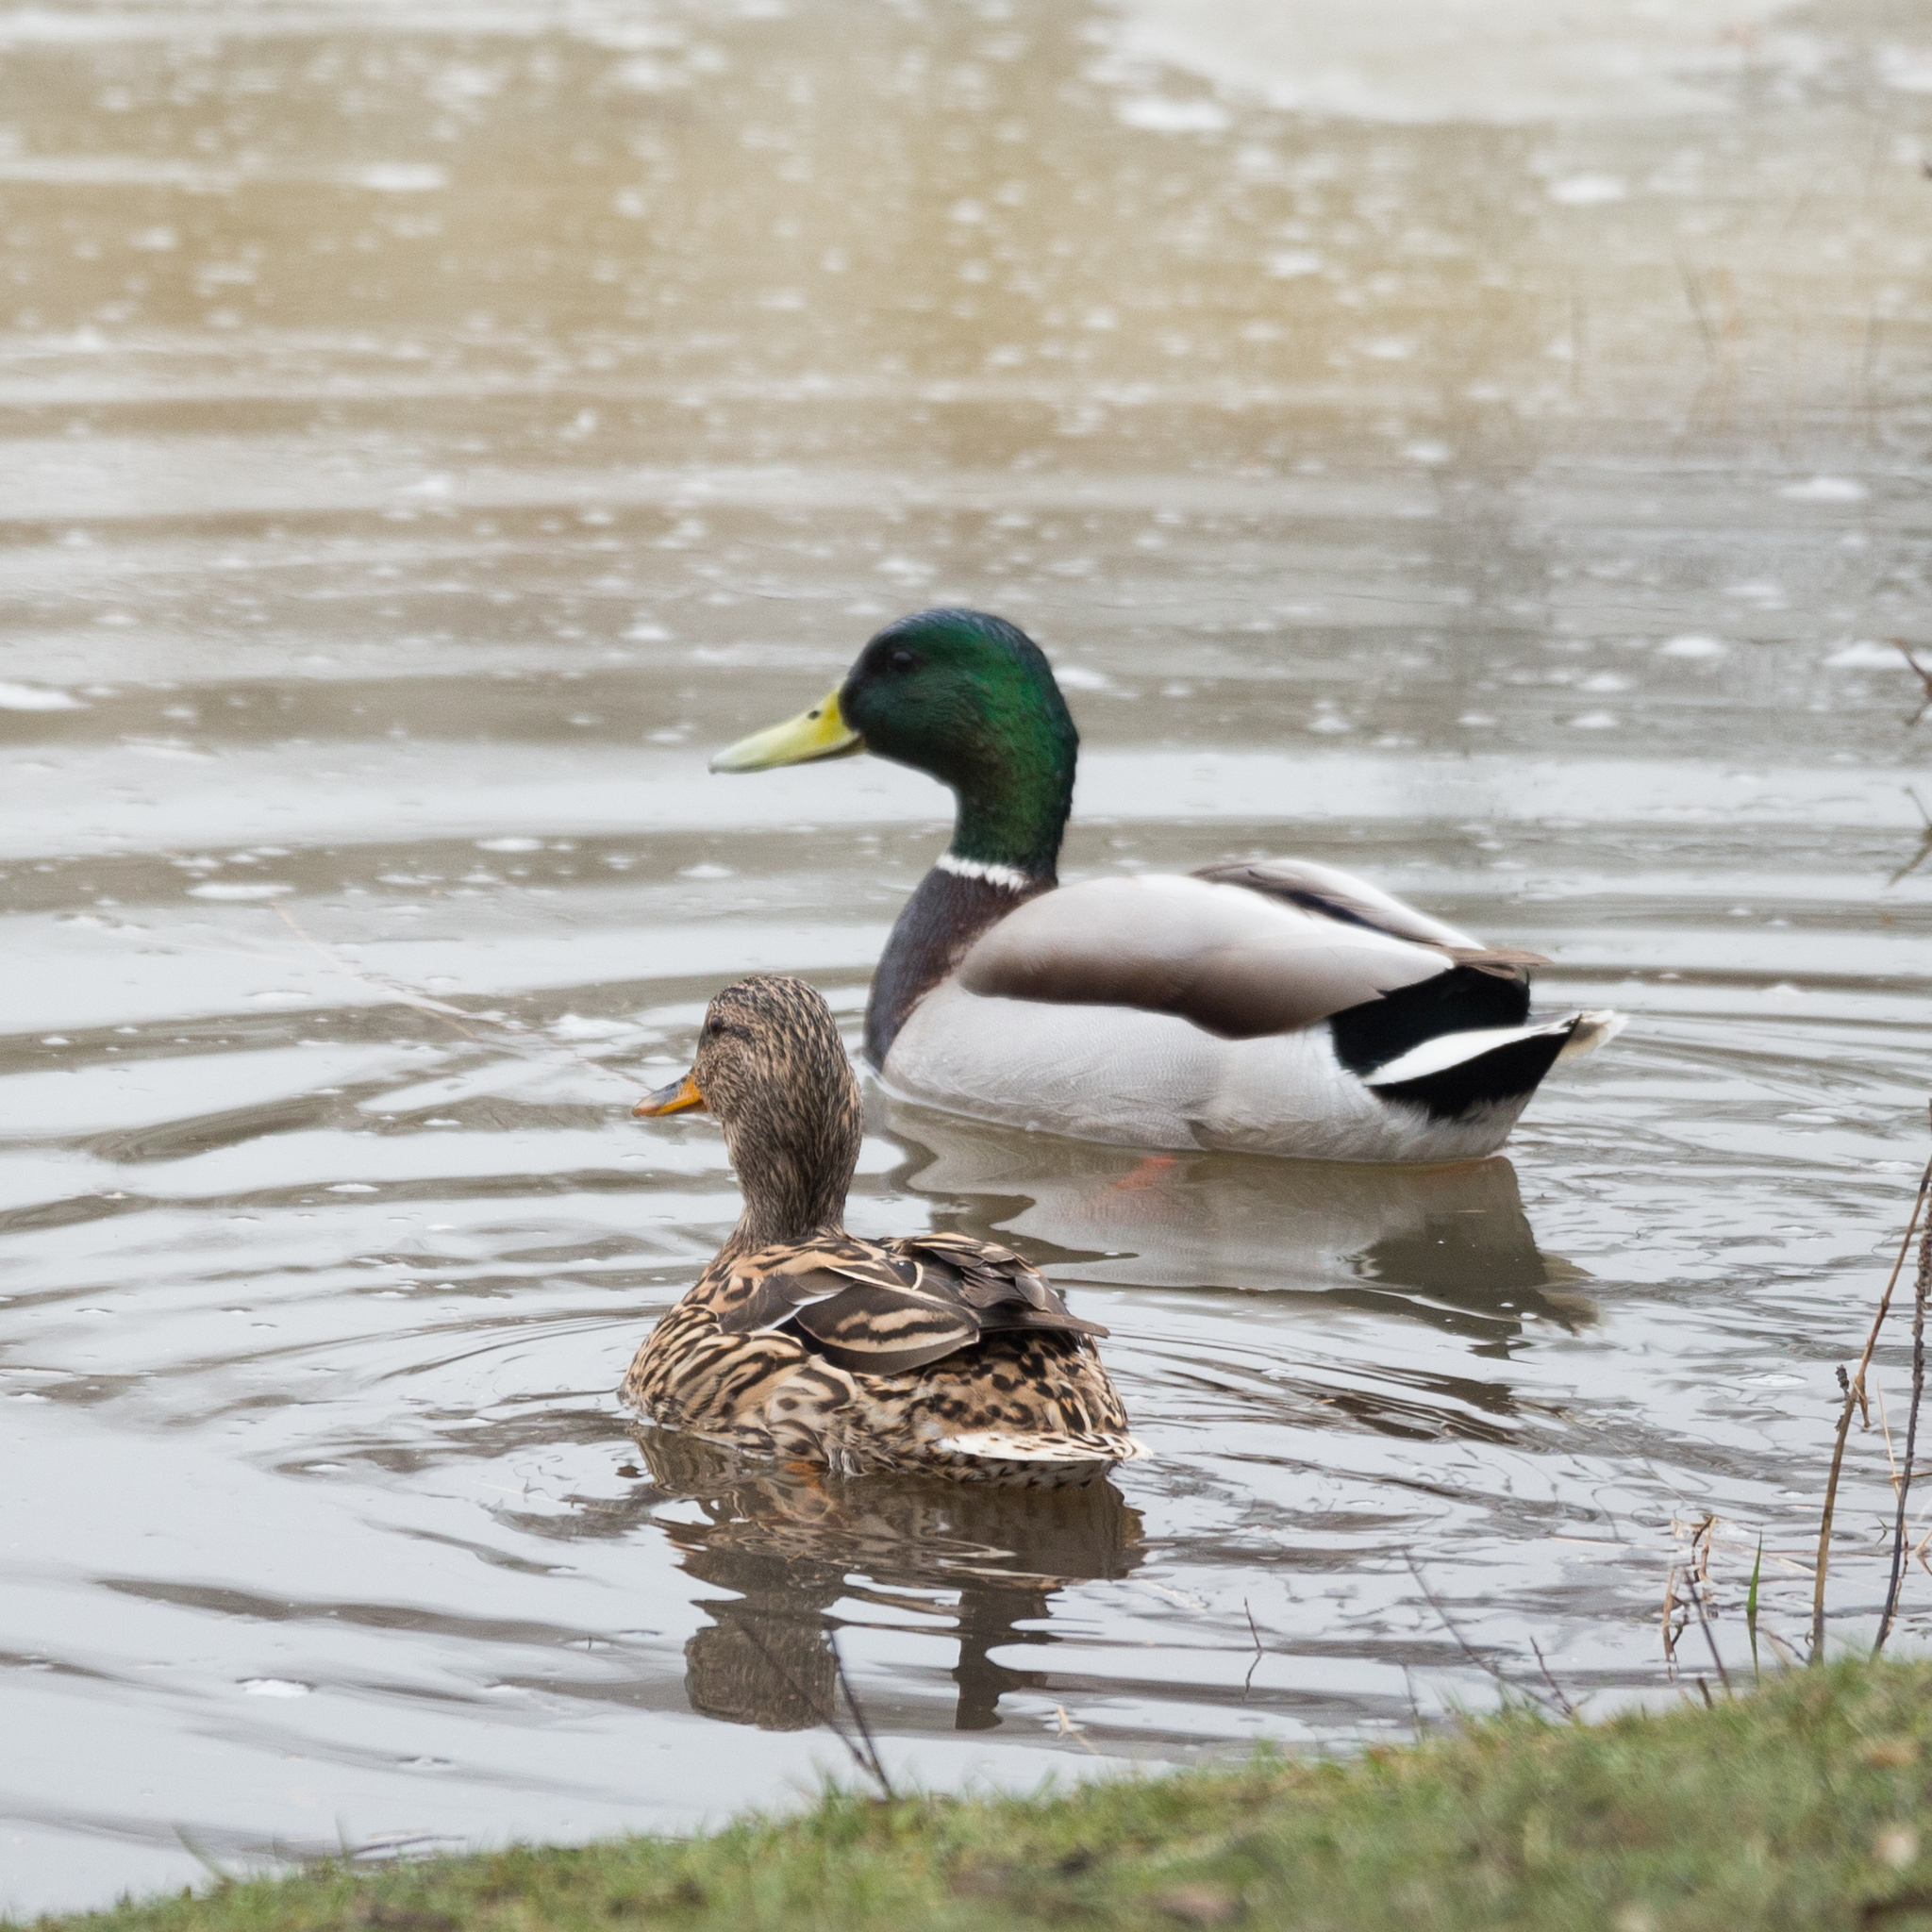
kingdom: Animalia
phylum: Chordata
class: Aves
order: Anseriformes
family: Anatidae
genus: Anas
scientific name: Anas platyrhynchos
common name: Mallard
